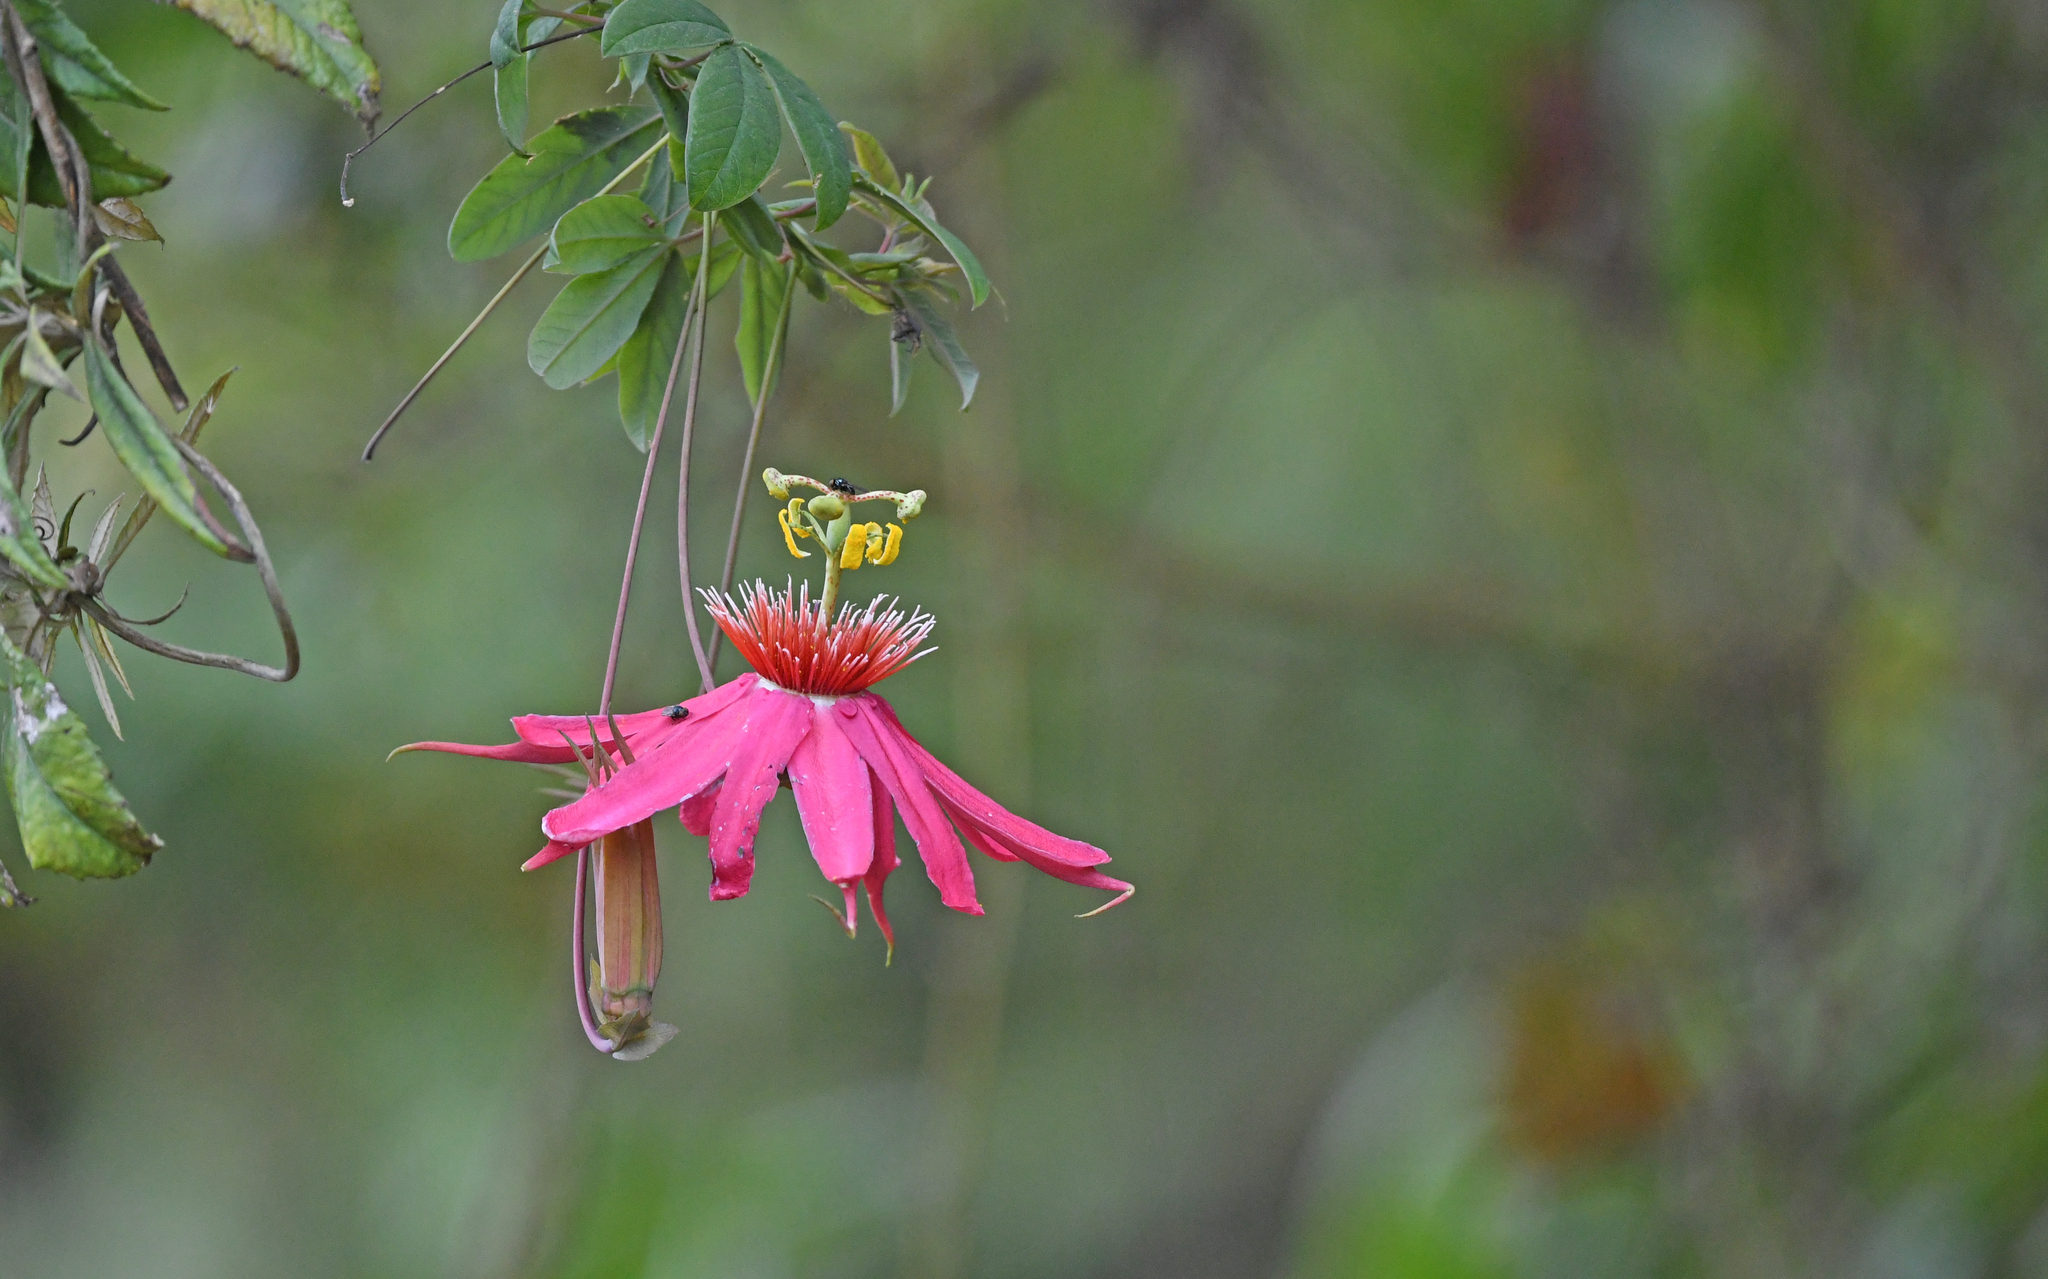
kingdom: Plantae
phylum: Tracheophyta
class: Magnoliopsida
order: Malpighiales
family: Passifloraceae
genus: Passiflora
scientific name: Passiflora gritensis
